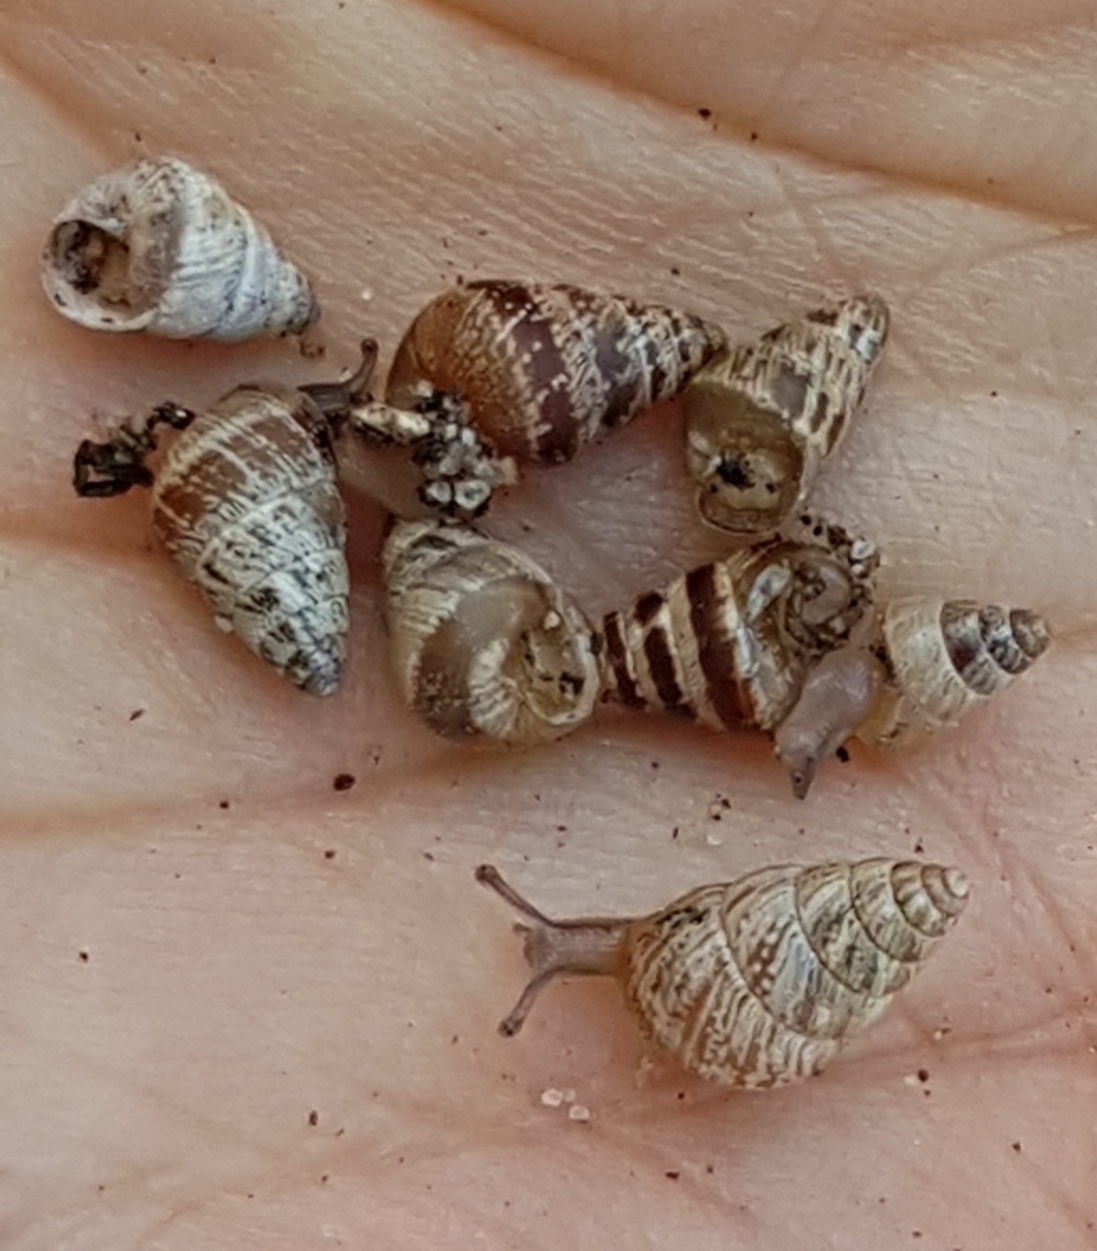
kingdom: Animalia
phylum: Mollusca
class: Gastropoda
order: Stylommatophora
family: Geomitridae
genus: Cochlicella
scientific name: Cochlicella barbara
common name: Potbellied helicellid
